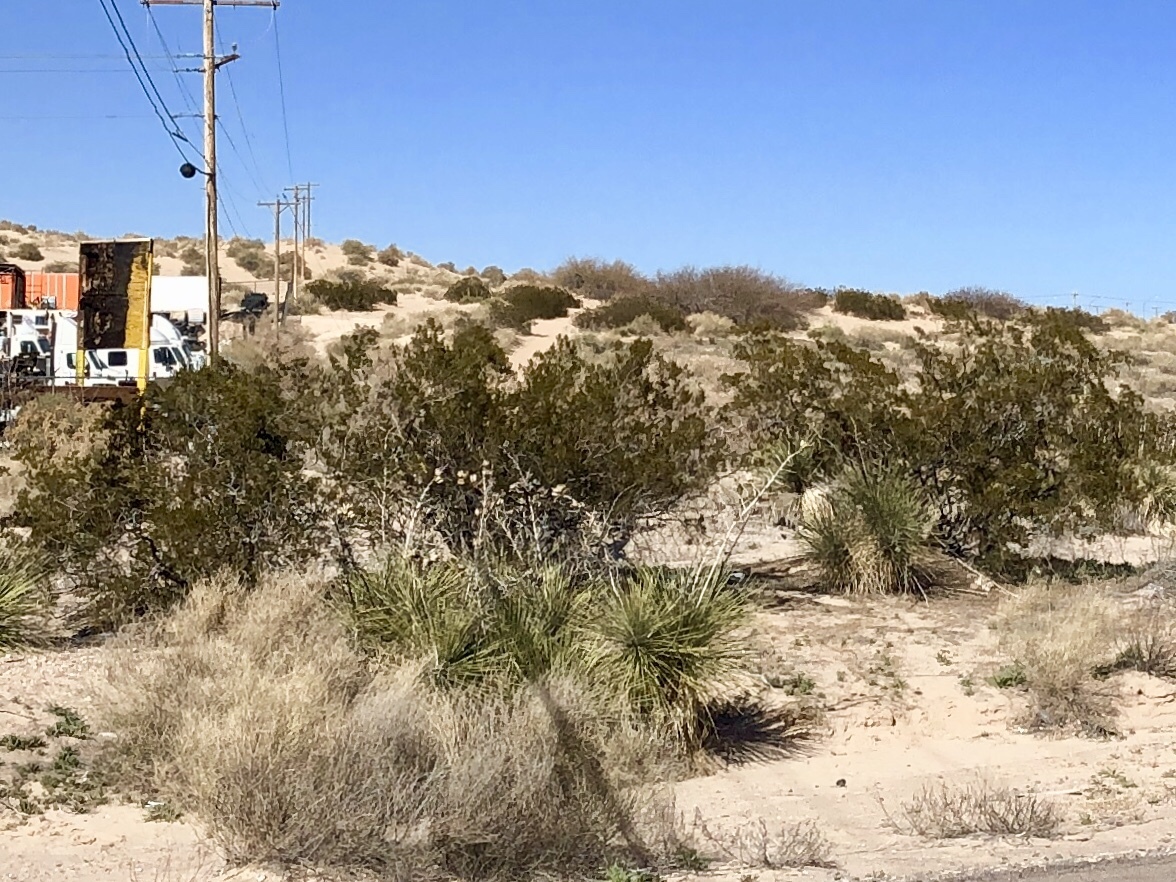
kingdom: Plantae
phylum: Tracheophyta
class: Magnoliopsida
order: Zygophyllales
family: Zygophyllaceae
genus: Larrea
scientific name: Larrea tridentata
